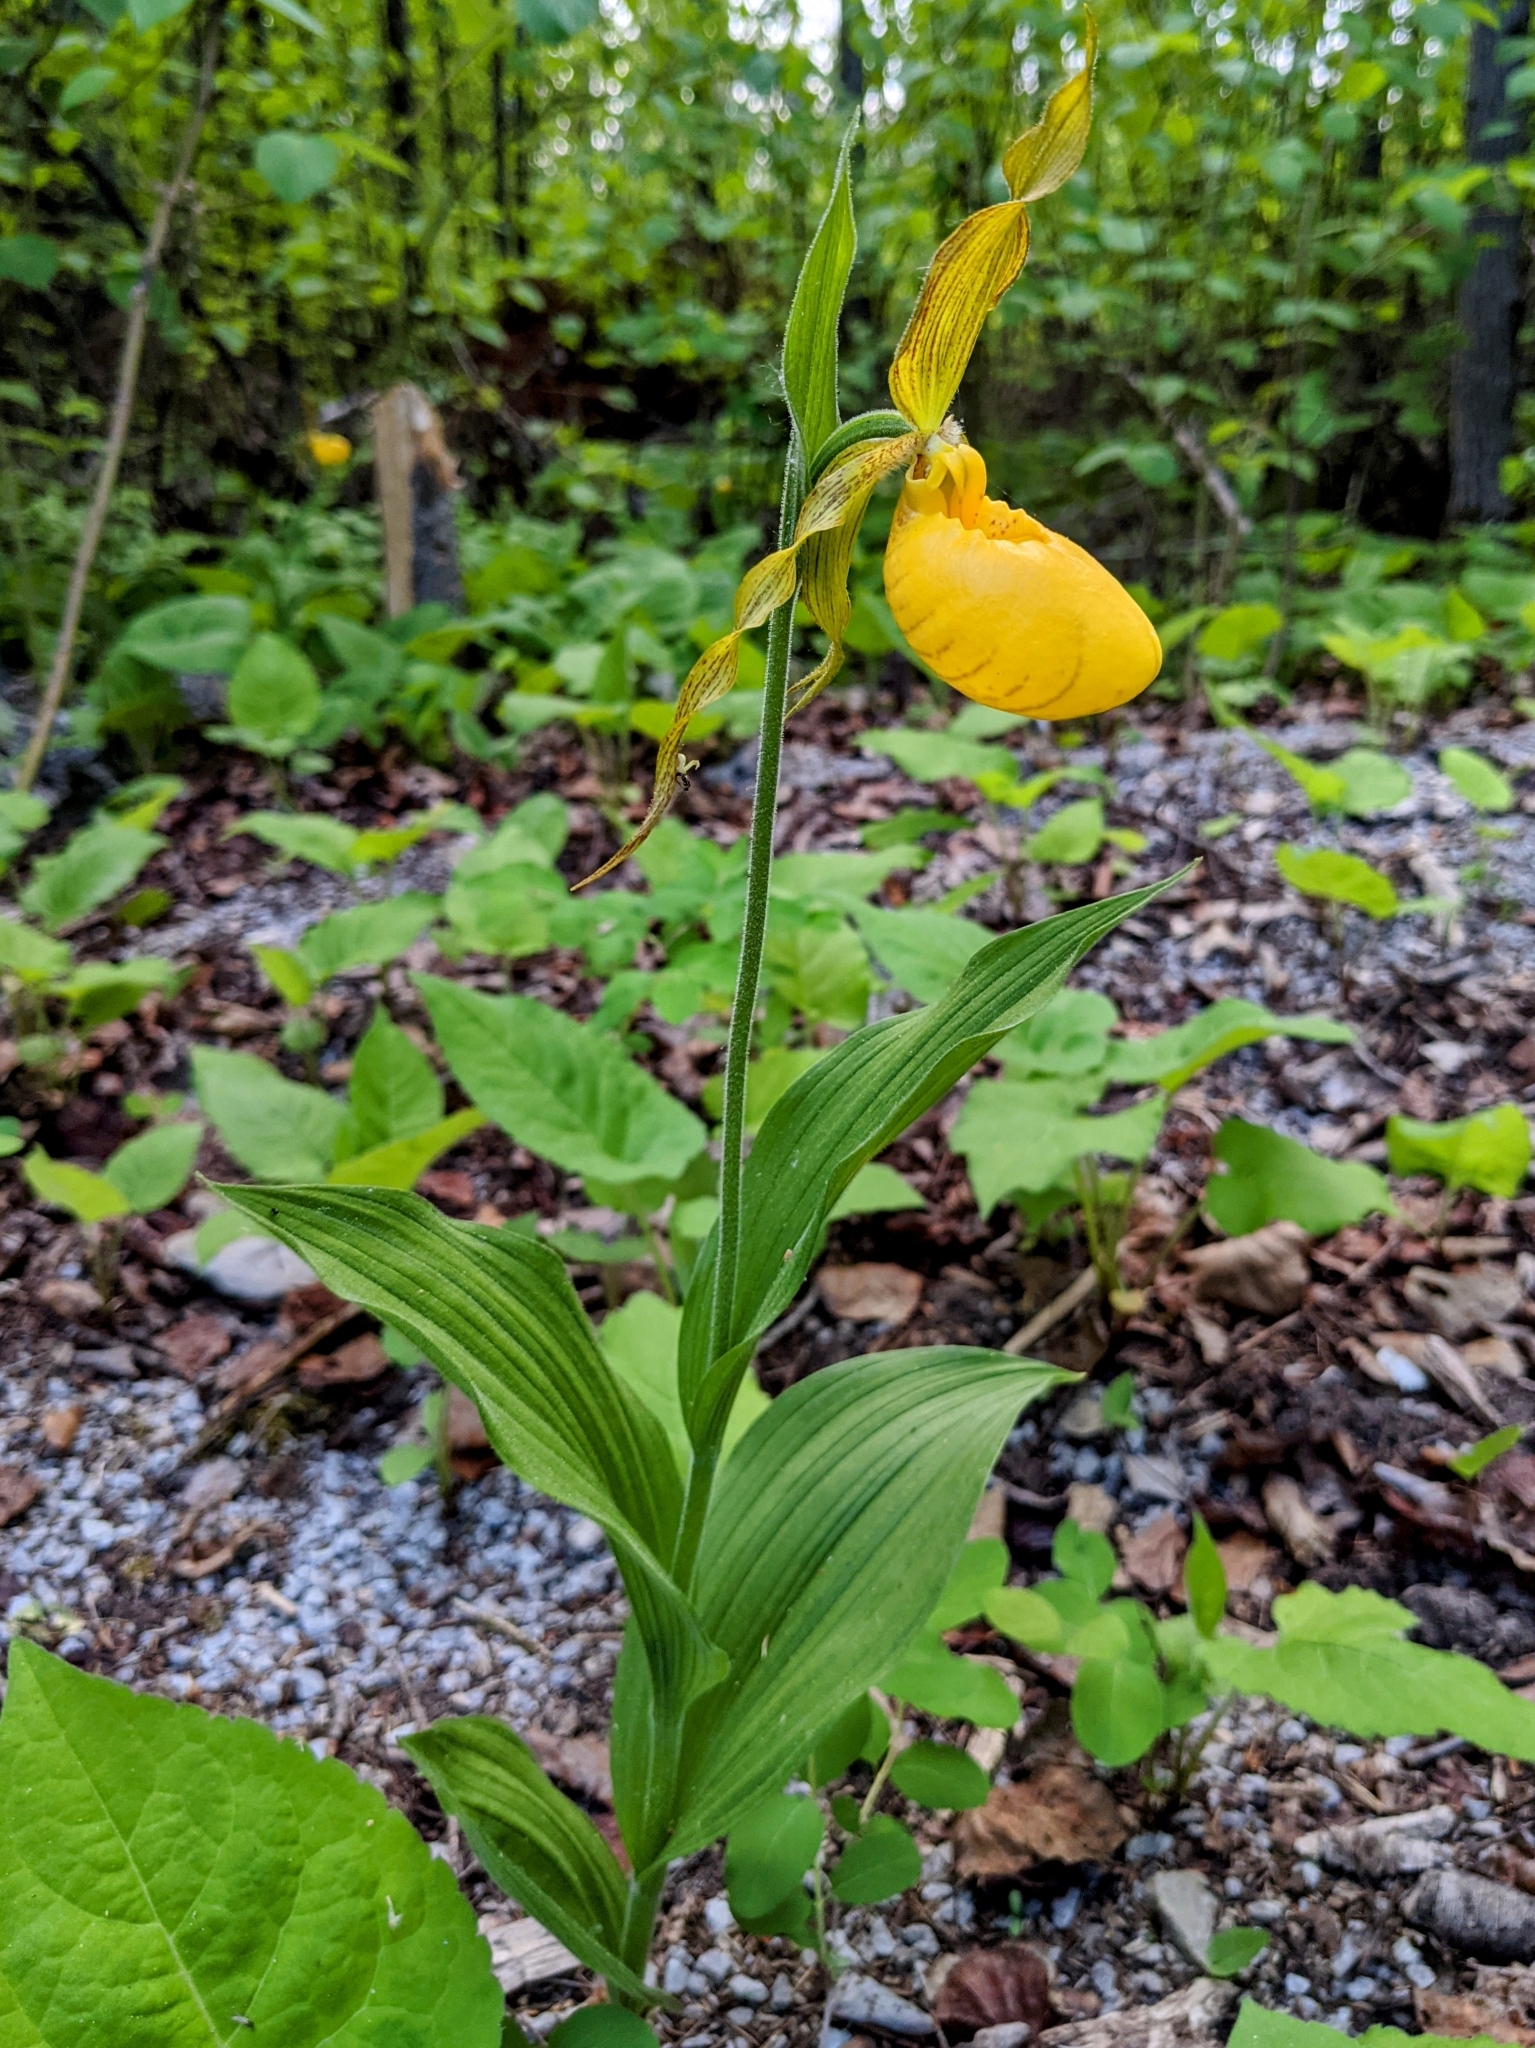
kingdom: Plantae
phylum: Tracheophyta
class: Liliopsida
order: Asparagales
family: Orchidaceae
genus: Cypripedium
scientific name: Cypripedium parviflorum
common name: American yellow lady's-slipper
